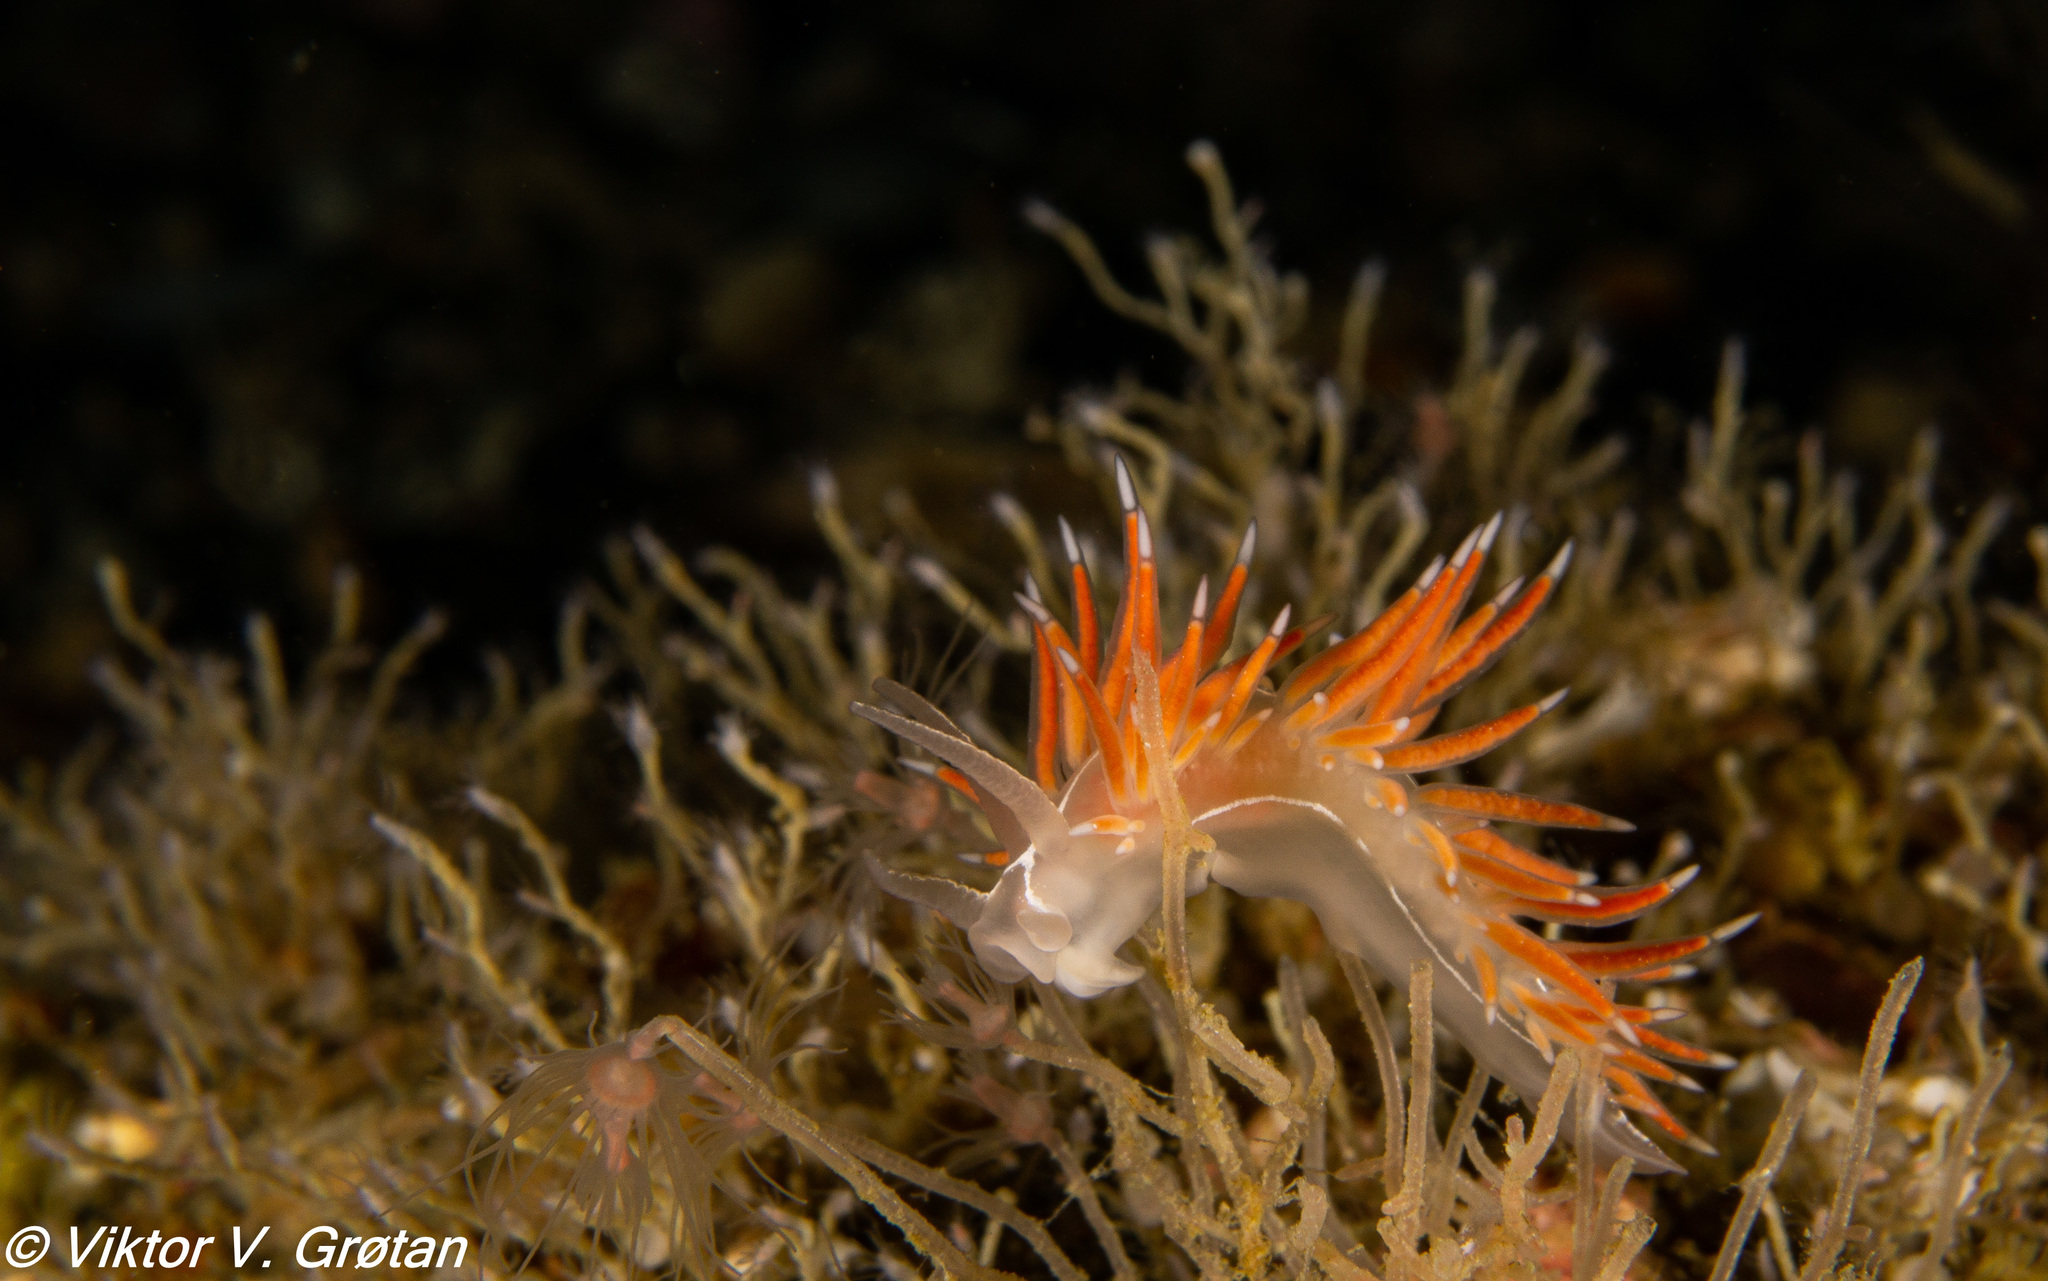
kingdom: Animalia
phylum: Mollusca
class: Gastropoda
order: Nudibranchia
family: Coryphellidae
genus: Coryphella
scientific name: Coryphella chriskaugei
